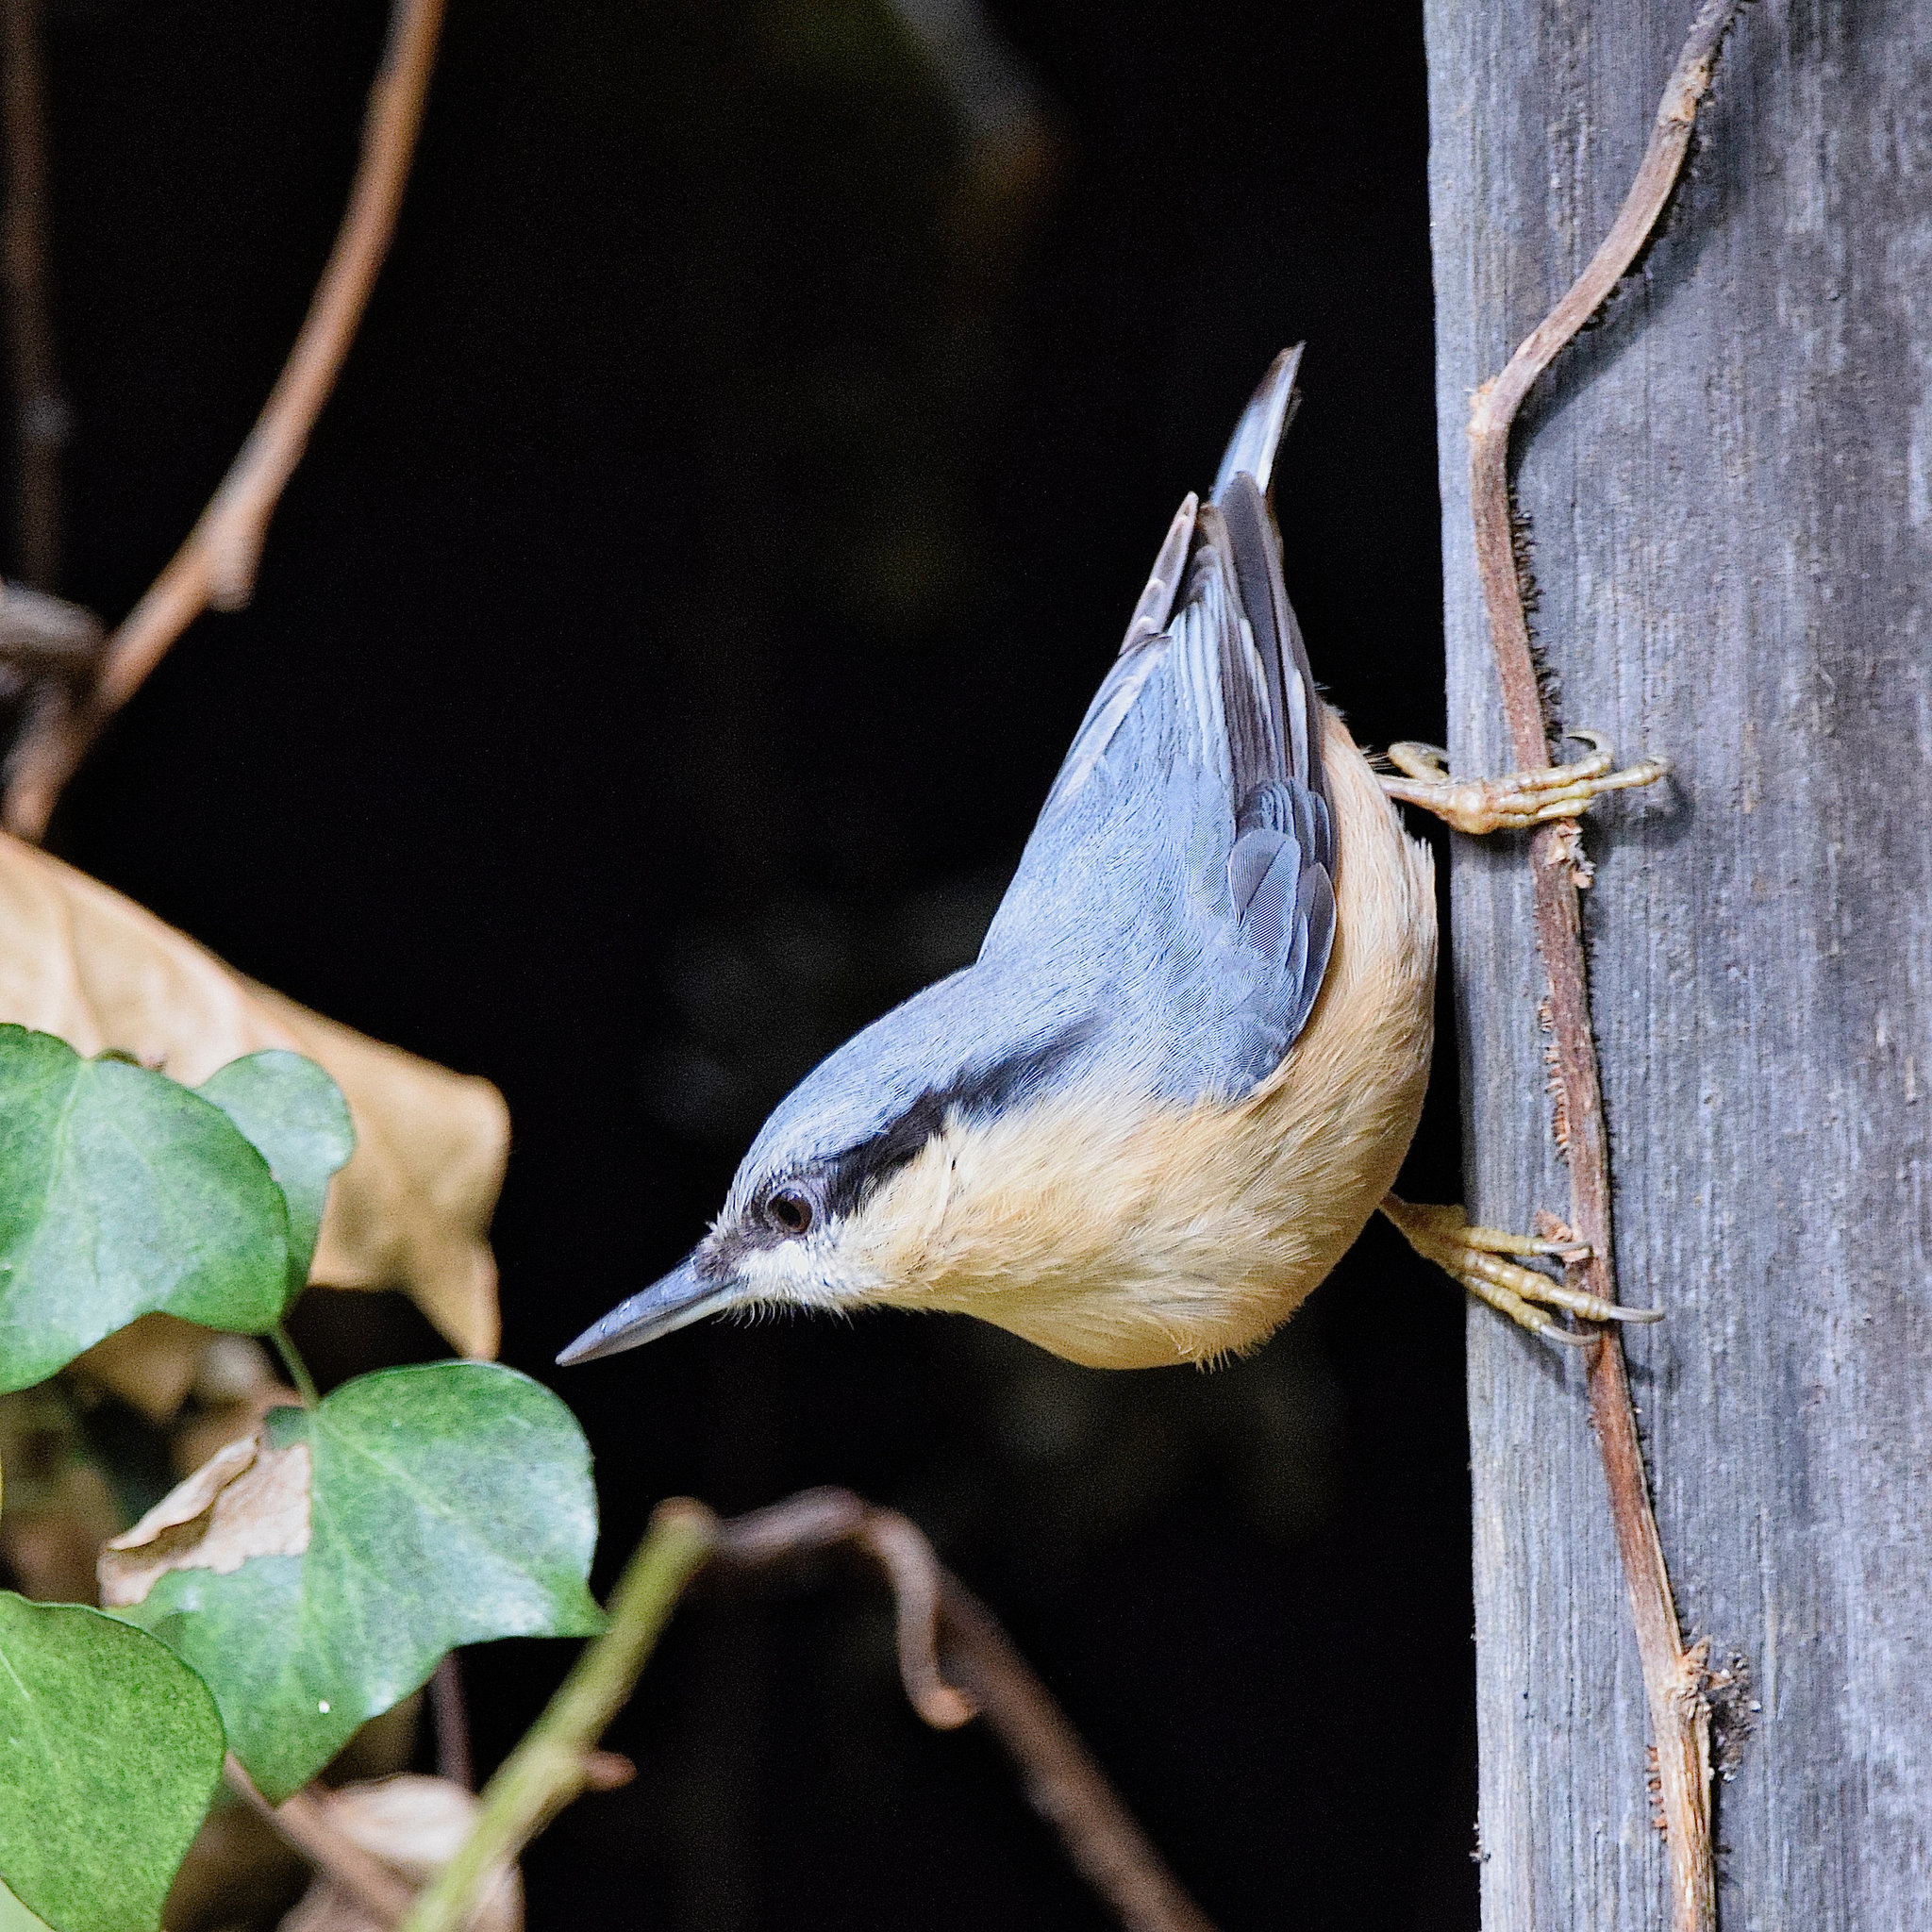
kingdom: Animalia
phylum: Chordata
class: Aves
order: Passeriformes
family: Sittidae
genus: Sitta
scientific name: Sitta europaea
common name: Eurasian nuthatch
